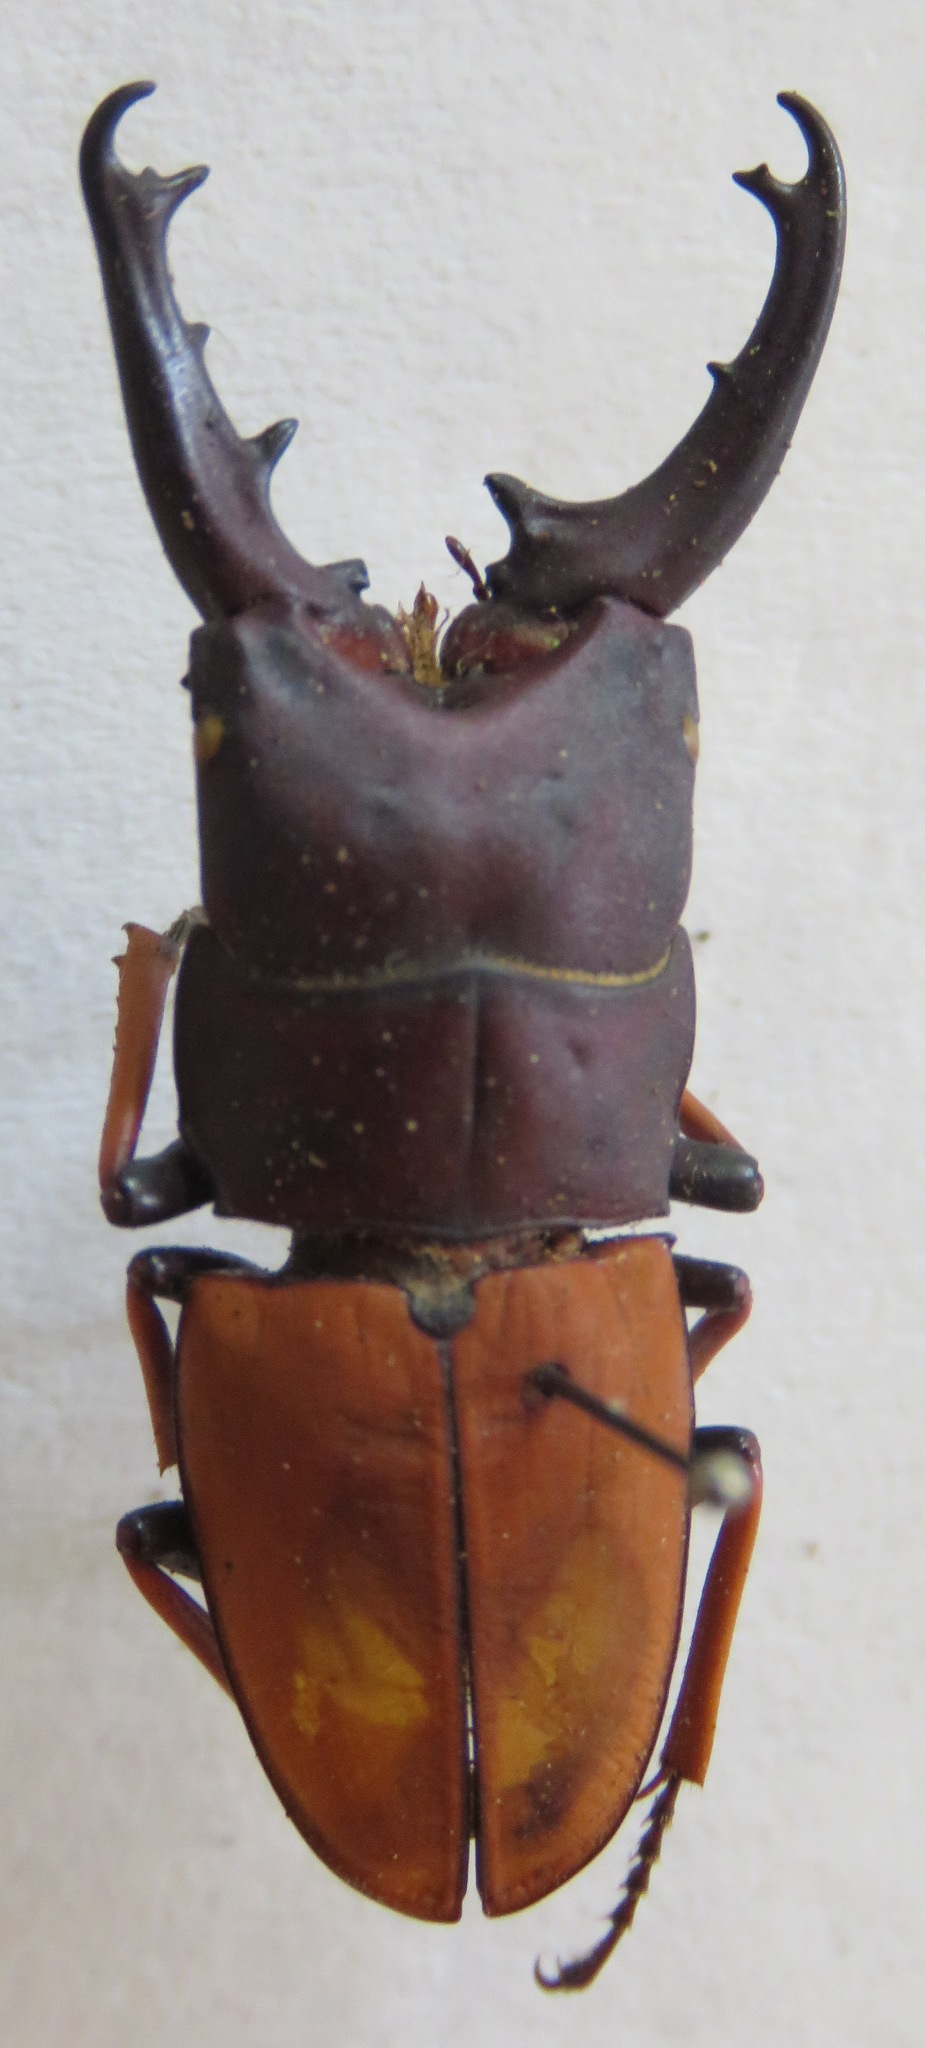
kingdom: Animalia
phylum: Arthropoda
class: Insecta
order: Coleoptera
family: Lucanidae
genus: Leptinopterus
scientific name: Leptinopterus tibialis
